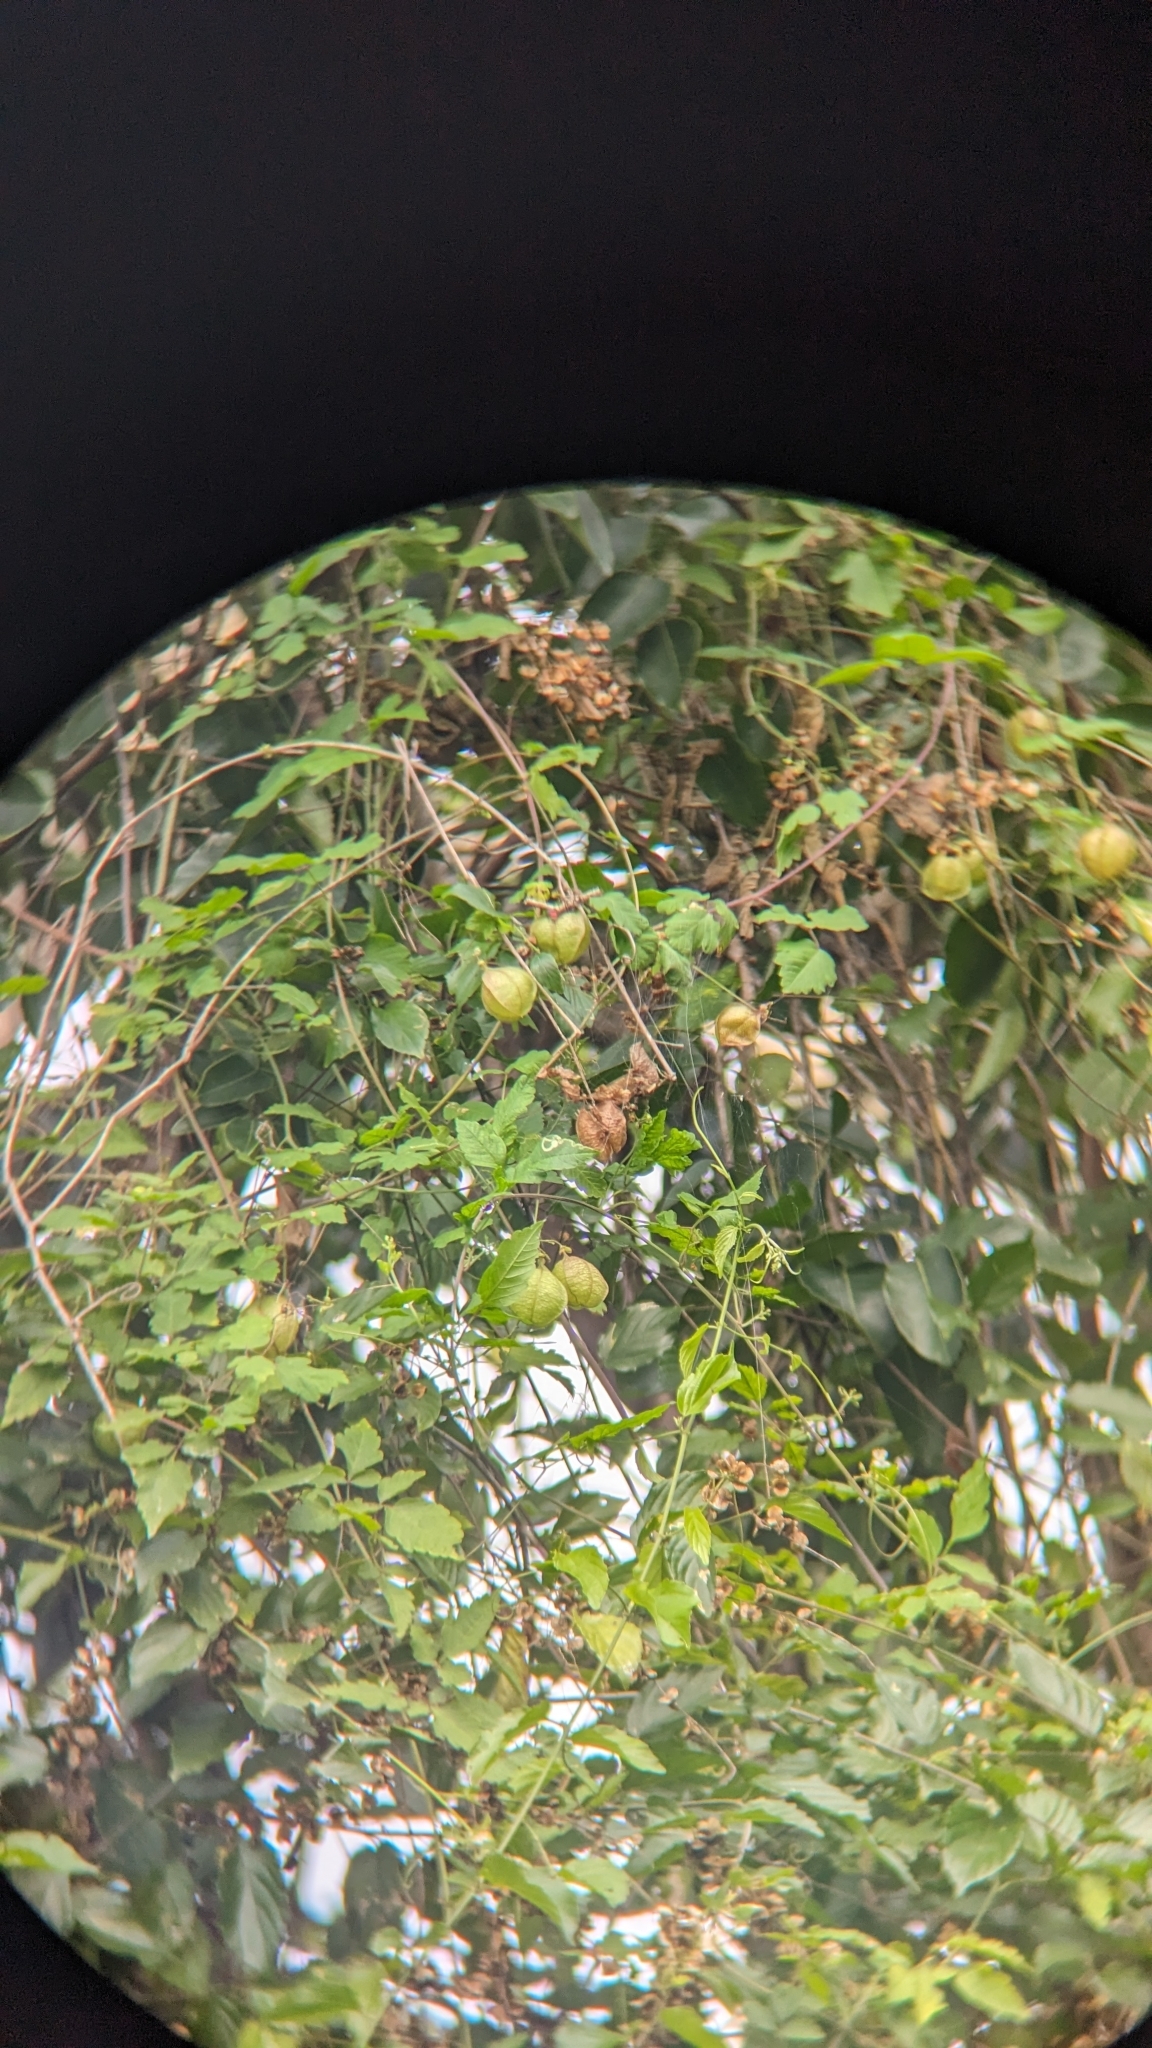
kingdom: Plantae
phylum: Tracheophyta
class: Magnoliopsida
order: Sapindales
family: Sapindaceae
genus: Cardiospermum
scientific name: Cardiospermum corindum
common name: Faux persil
